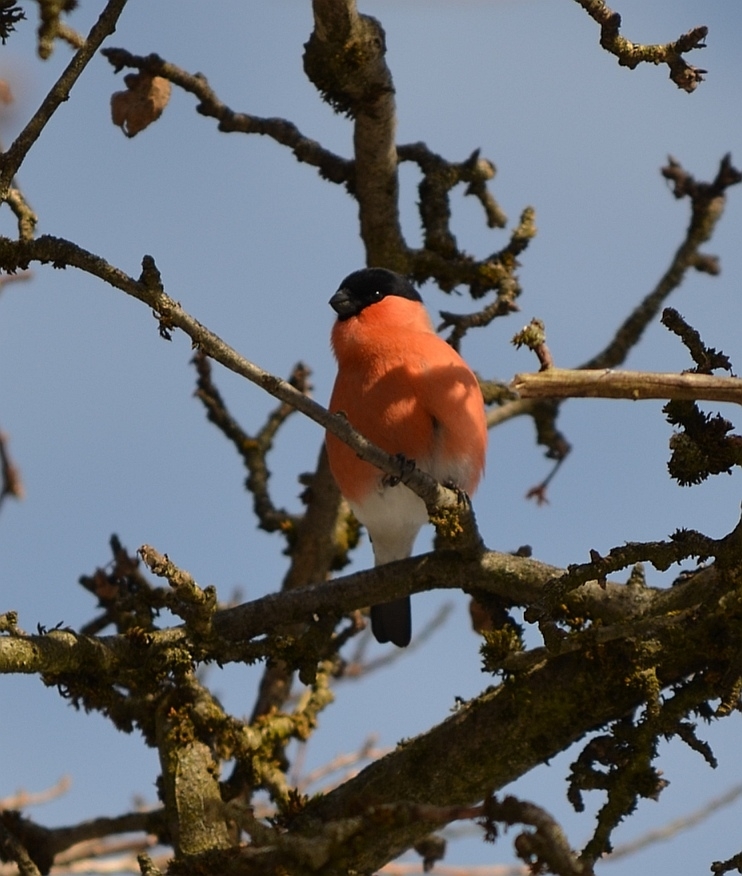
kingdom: Animalia
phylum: Chordata
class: Aves
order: Passeriformes
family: Fringillidae
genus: Pyrrhula
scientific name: Pyrrhula pyrrhula
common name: Eurasian bullfinch
